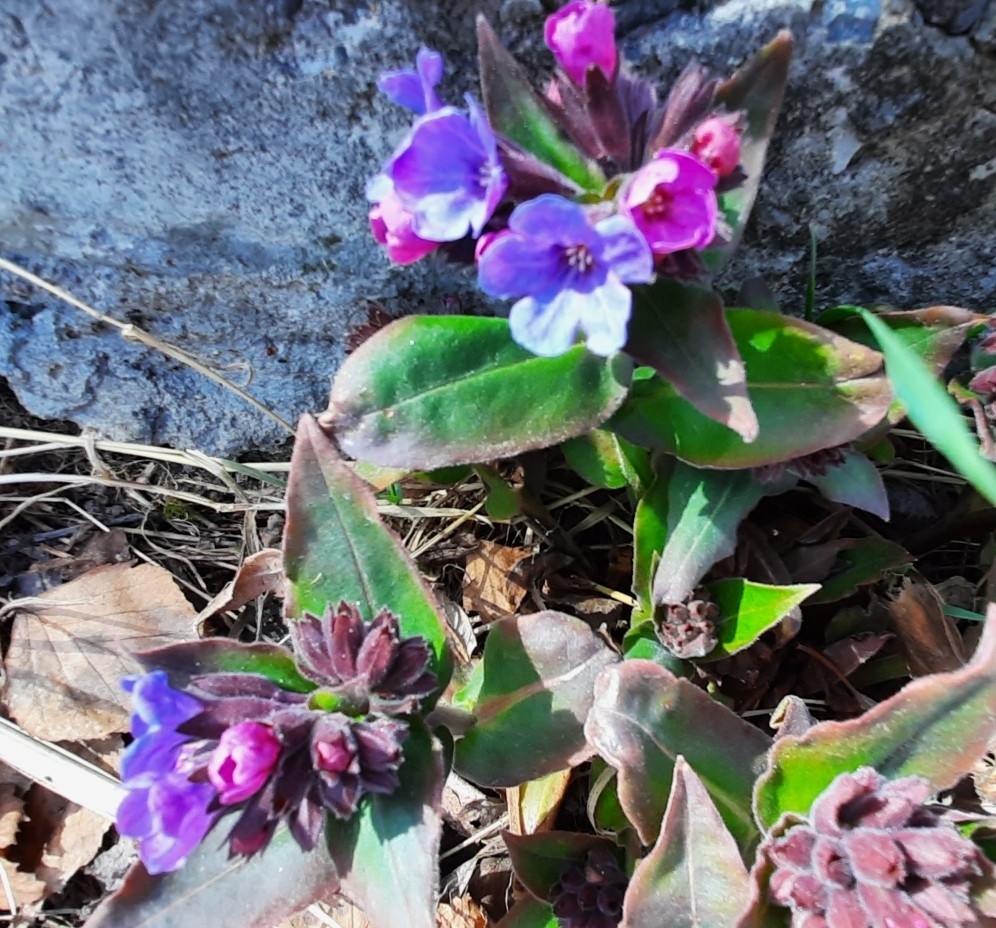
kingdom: Plantae
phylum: Tracheophyta
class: Magnoliopsida
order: Boraginales
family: Boraginaceae
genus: Pulmonaria
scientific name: Pulmonaria mollis
